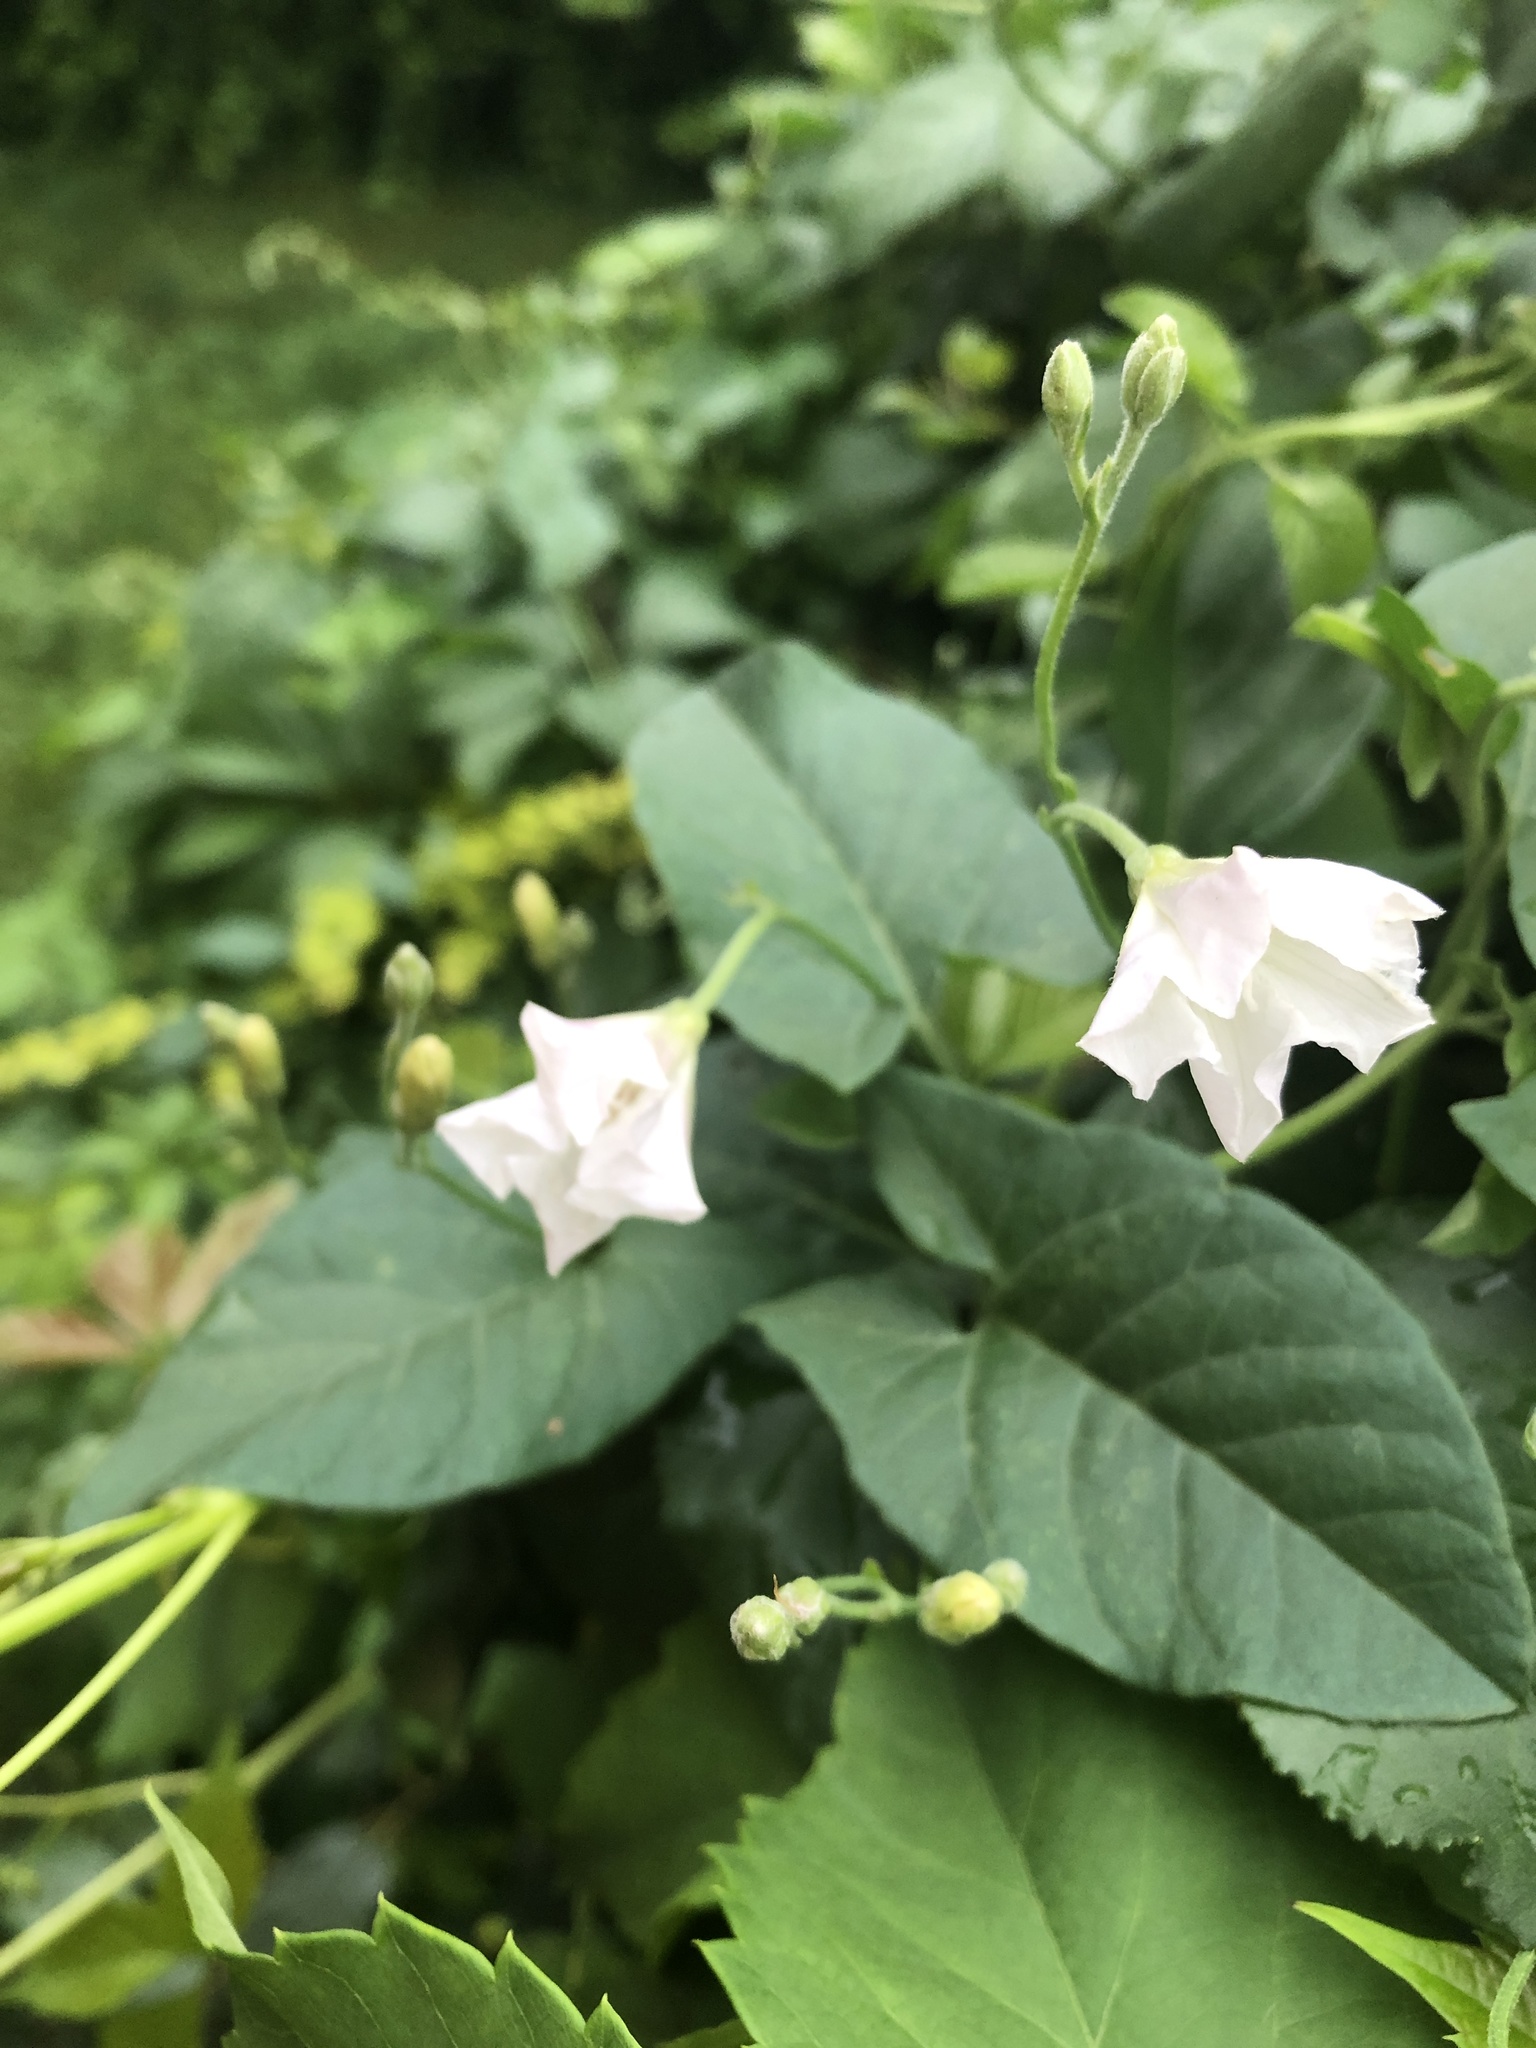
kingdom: Plantae
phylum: Tracheophyta
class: Magnoliopsida
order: Solanales
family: Convolvulaceae
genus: Ipomoea
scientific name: Ipomoea lacunosa
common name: White morning-glory
